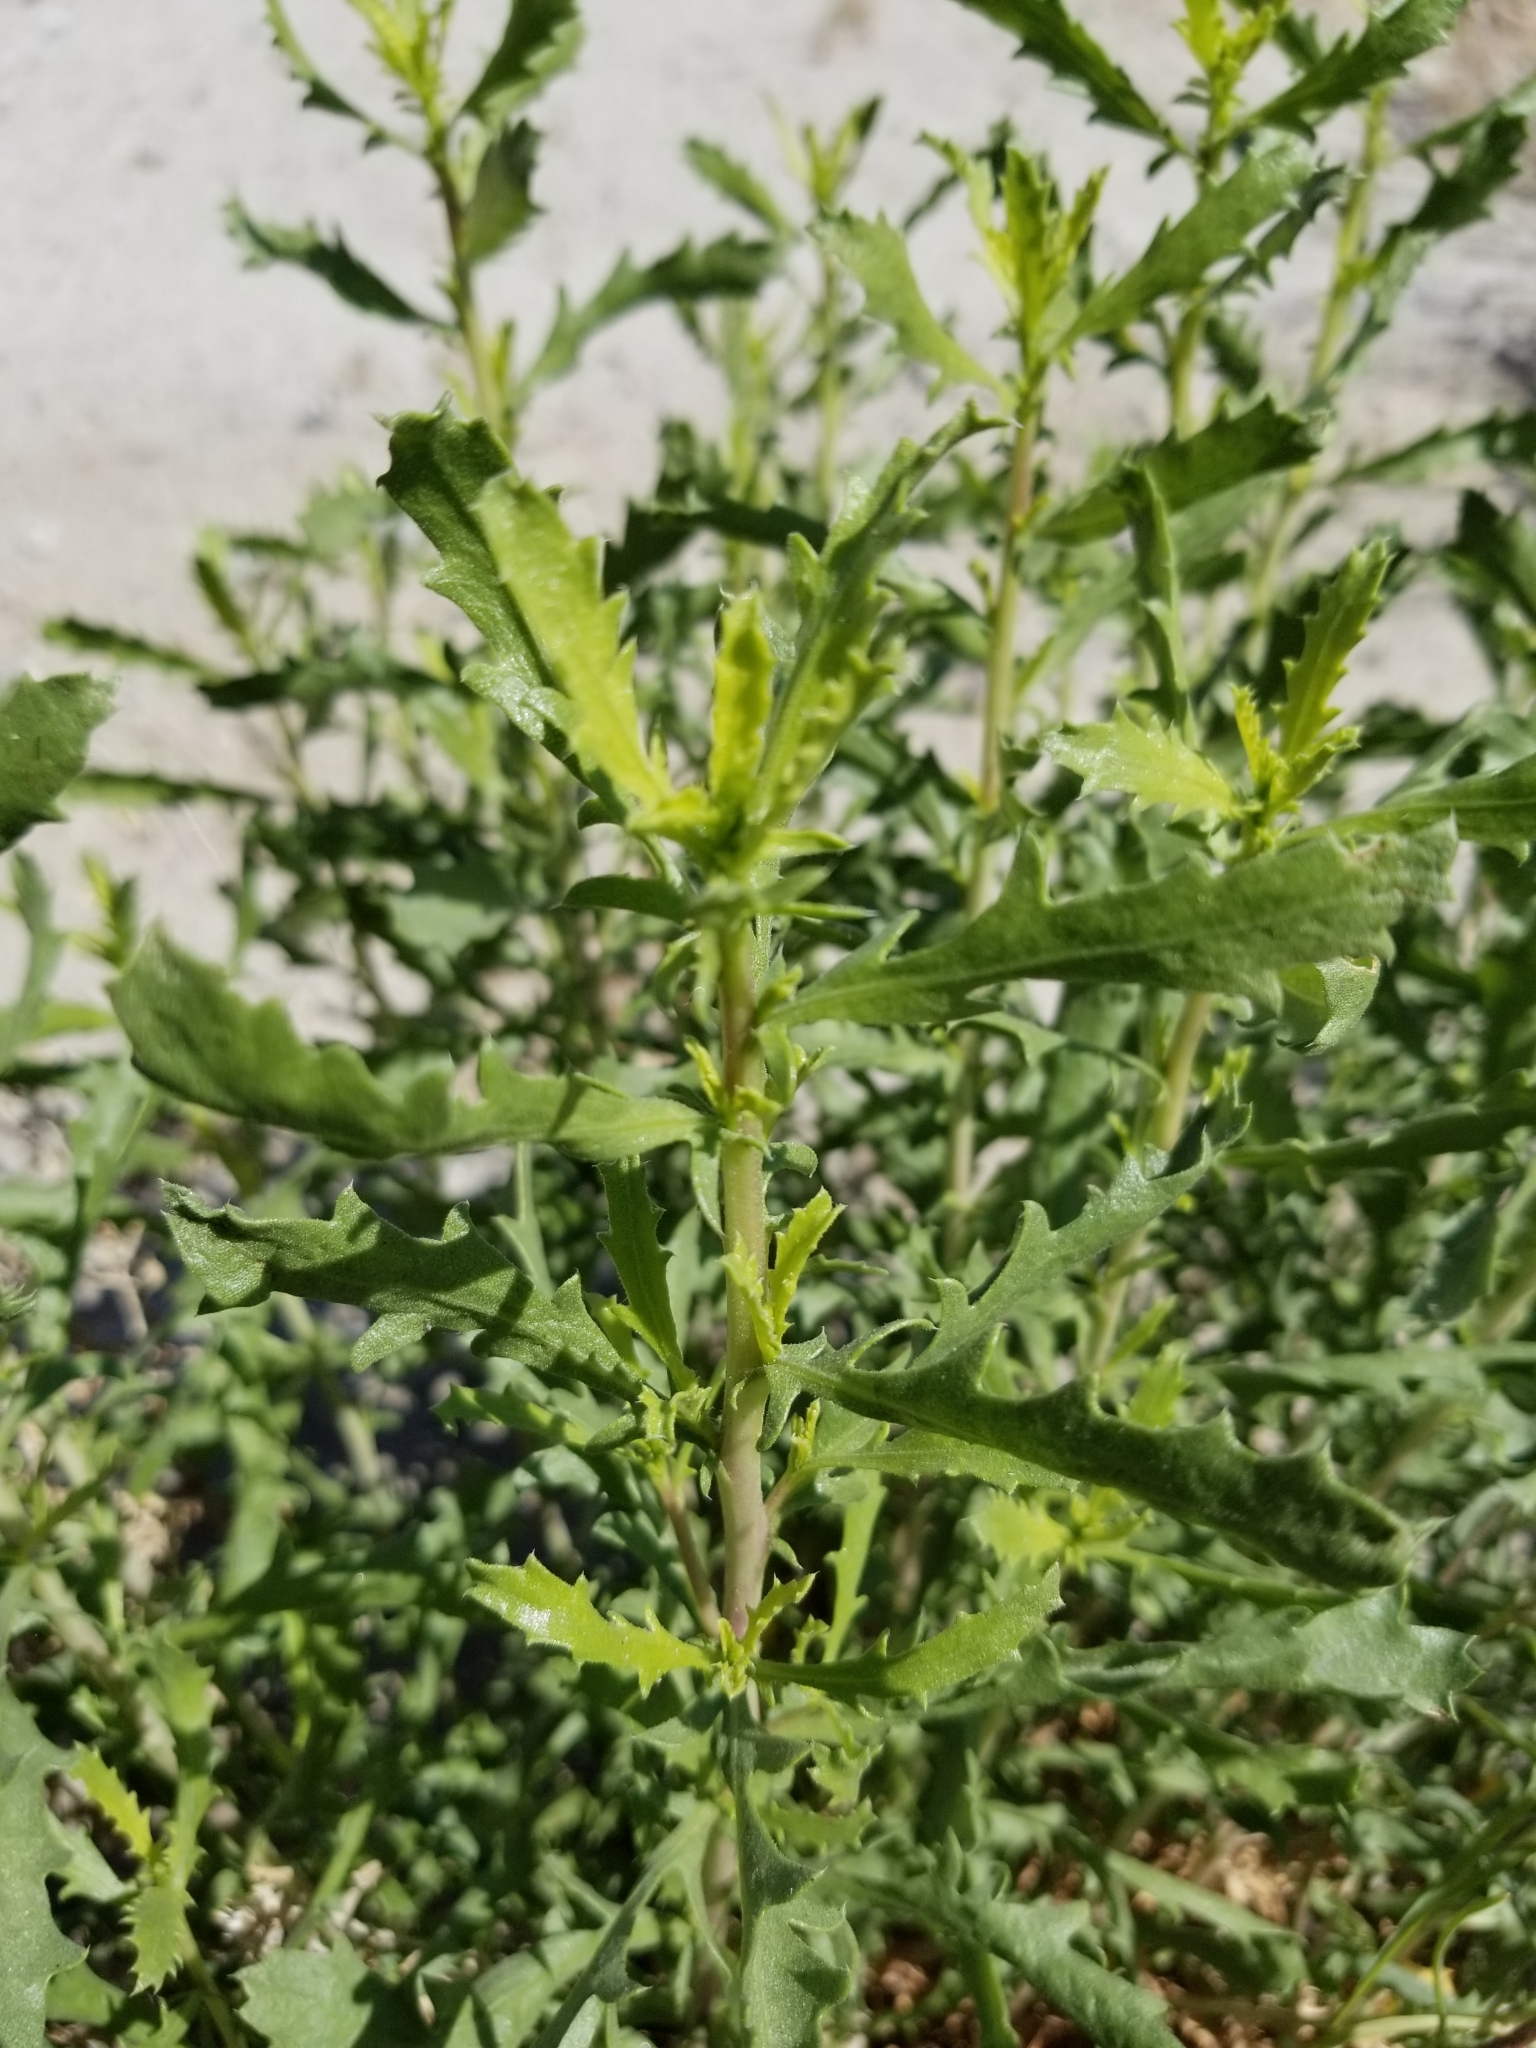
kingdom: Plantae
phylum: Tracheophyta
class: Magnoliopsida
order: Asterales
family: Asteraceae
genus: Isocoma
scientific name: Isocoma acradenia
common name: Alkali jimmyweed
